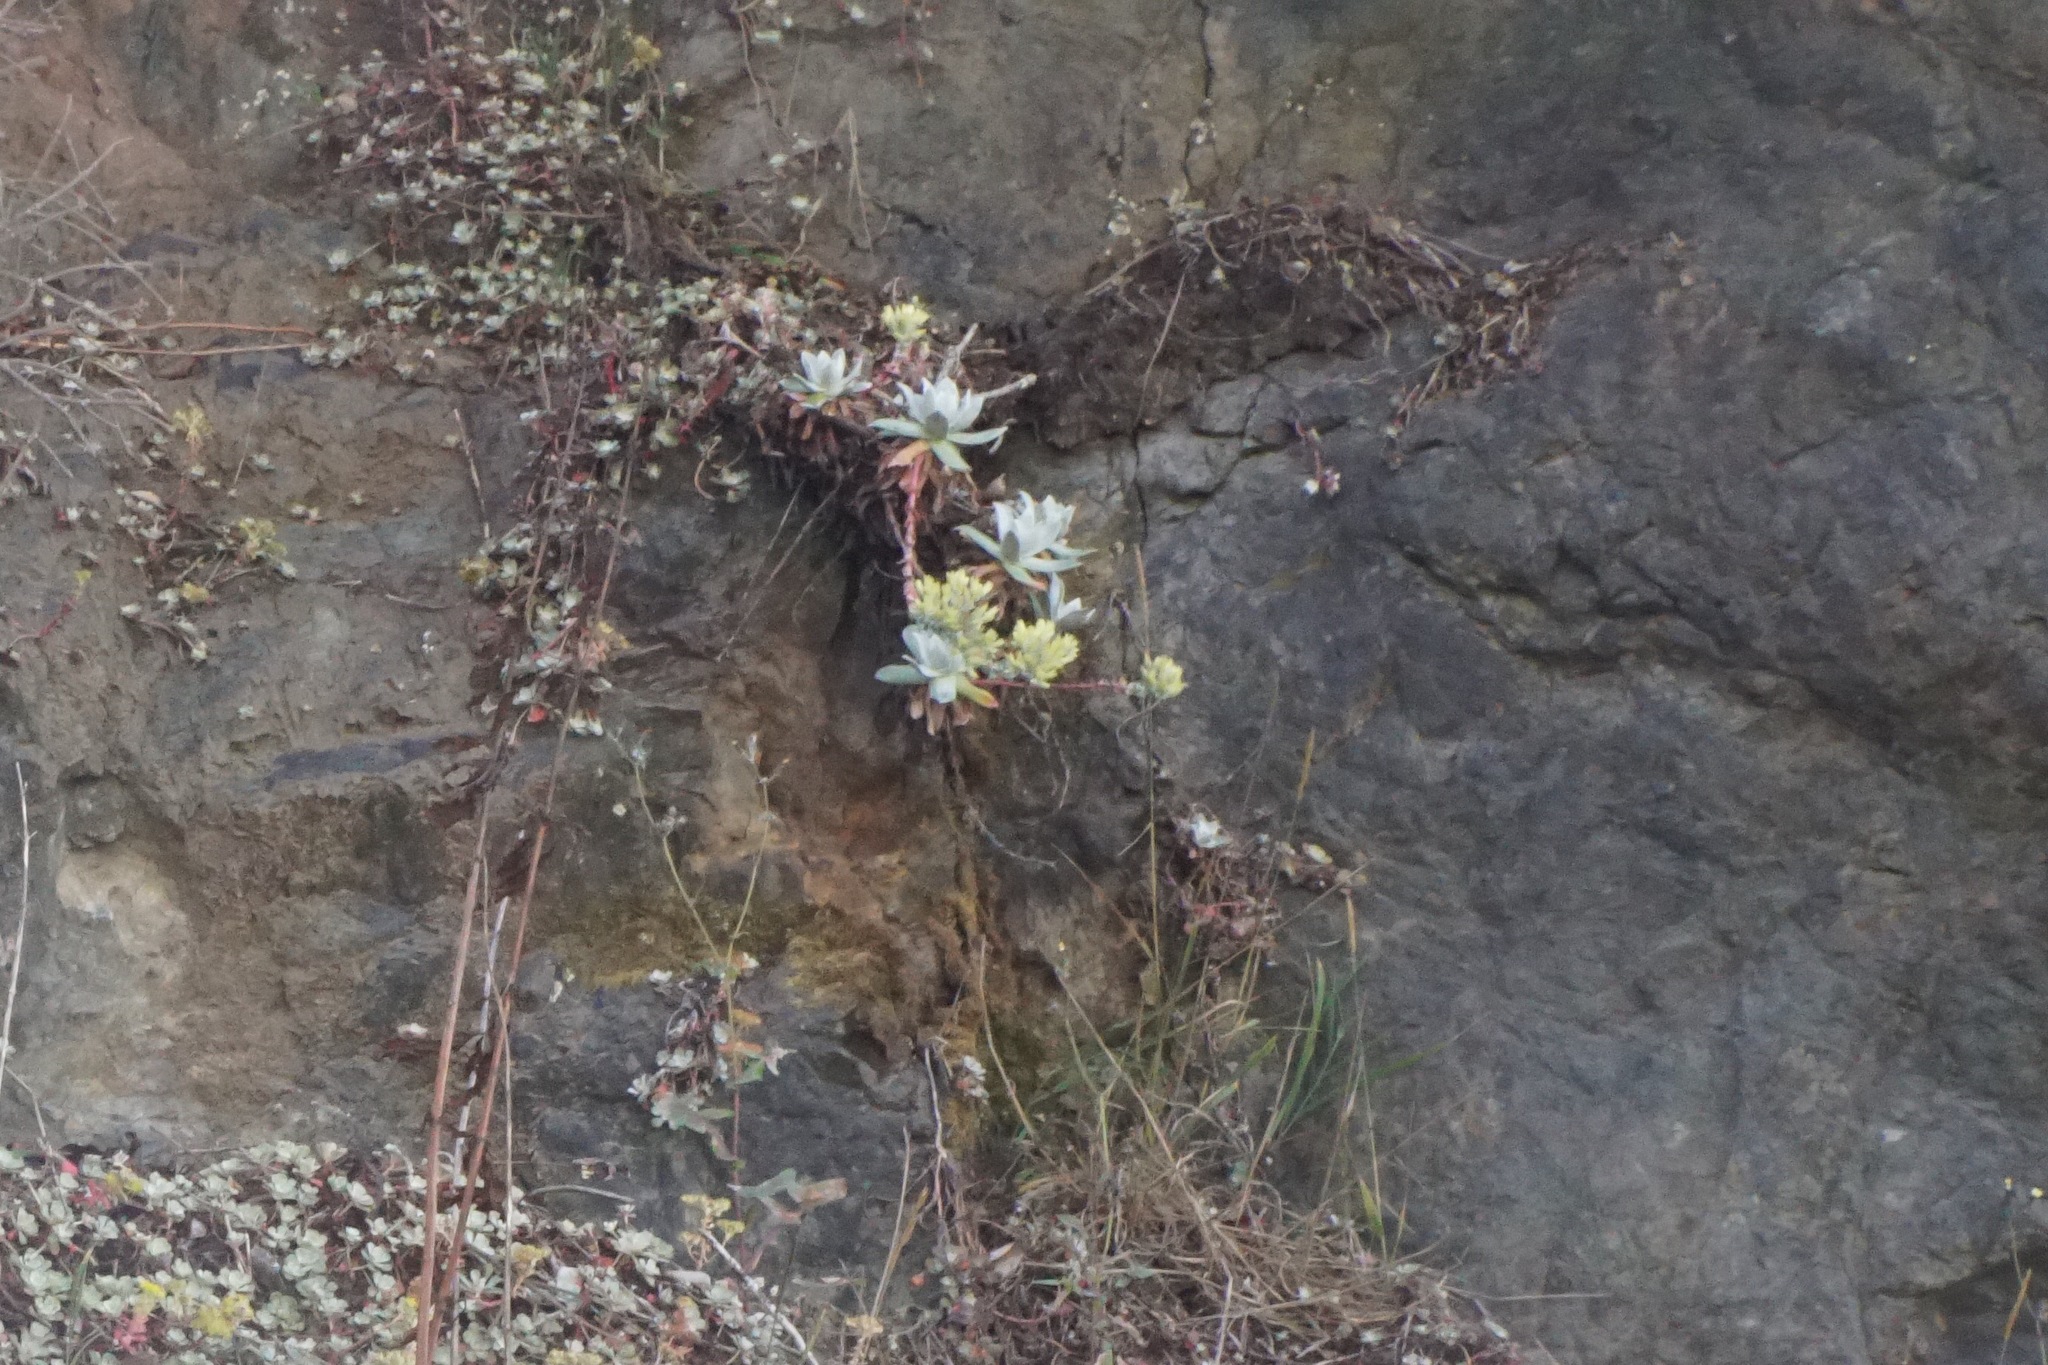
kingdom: Plantae
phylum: Tracheophyta
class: Magnoliopsida
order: Saxifragales
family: Crassulaceae
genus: Dudleya
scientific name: Dudleya farinosa
